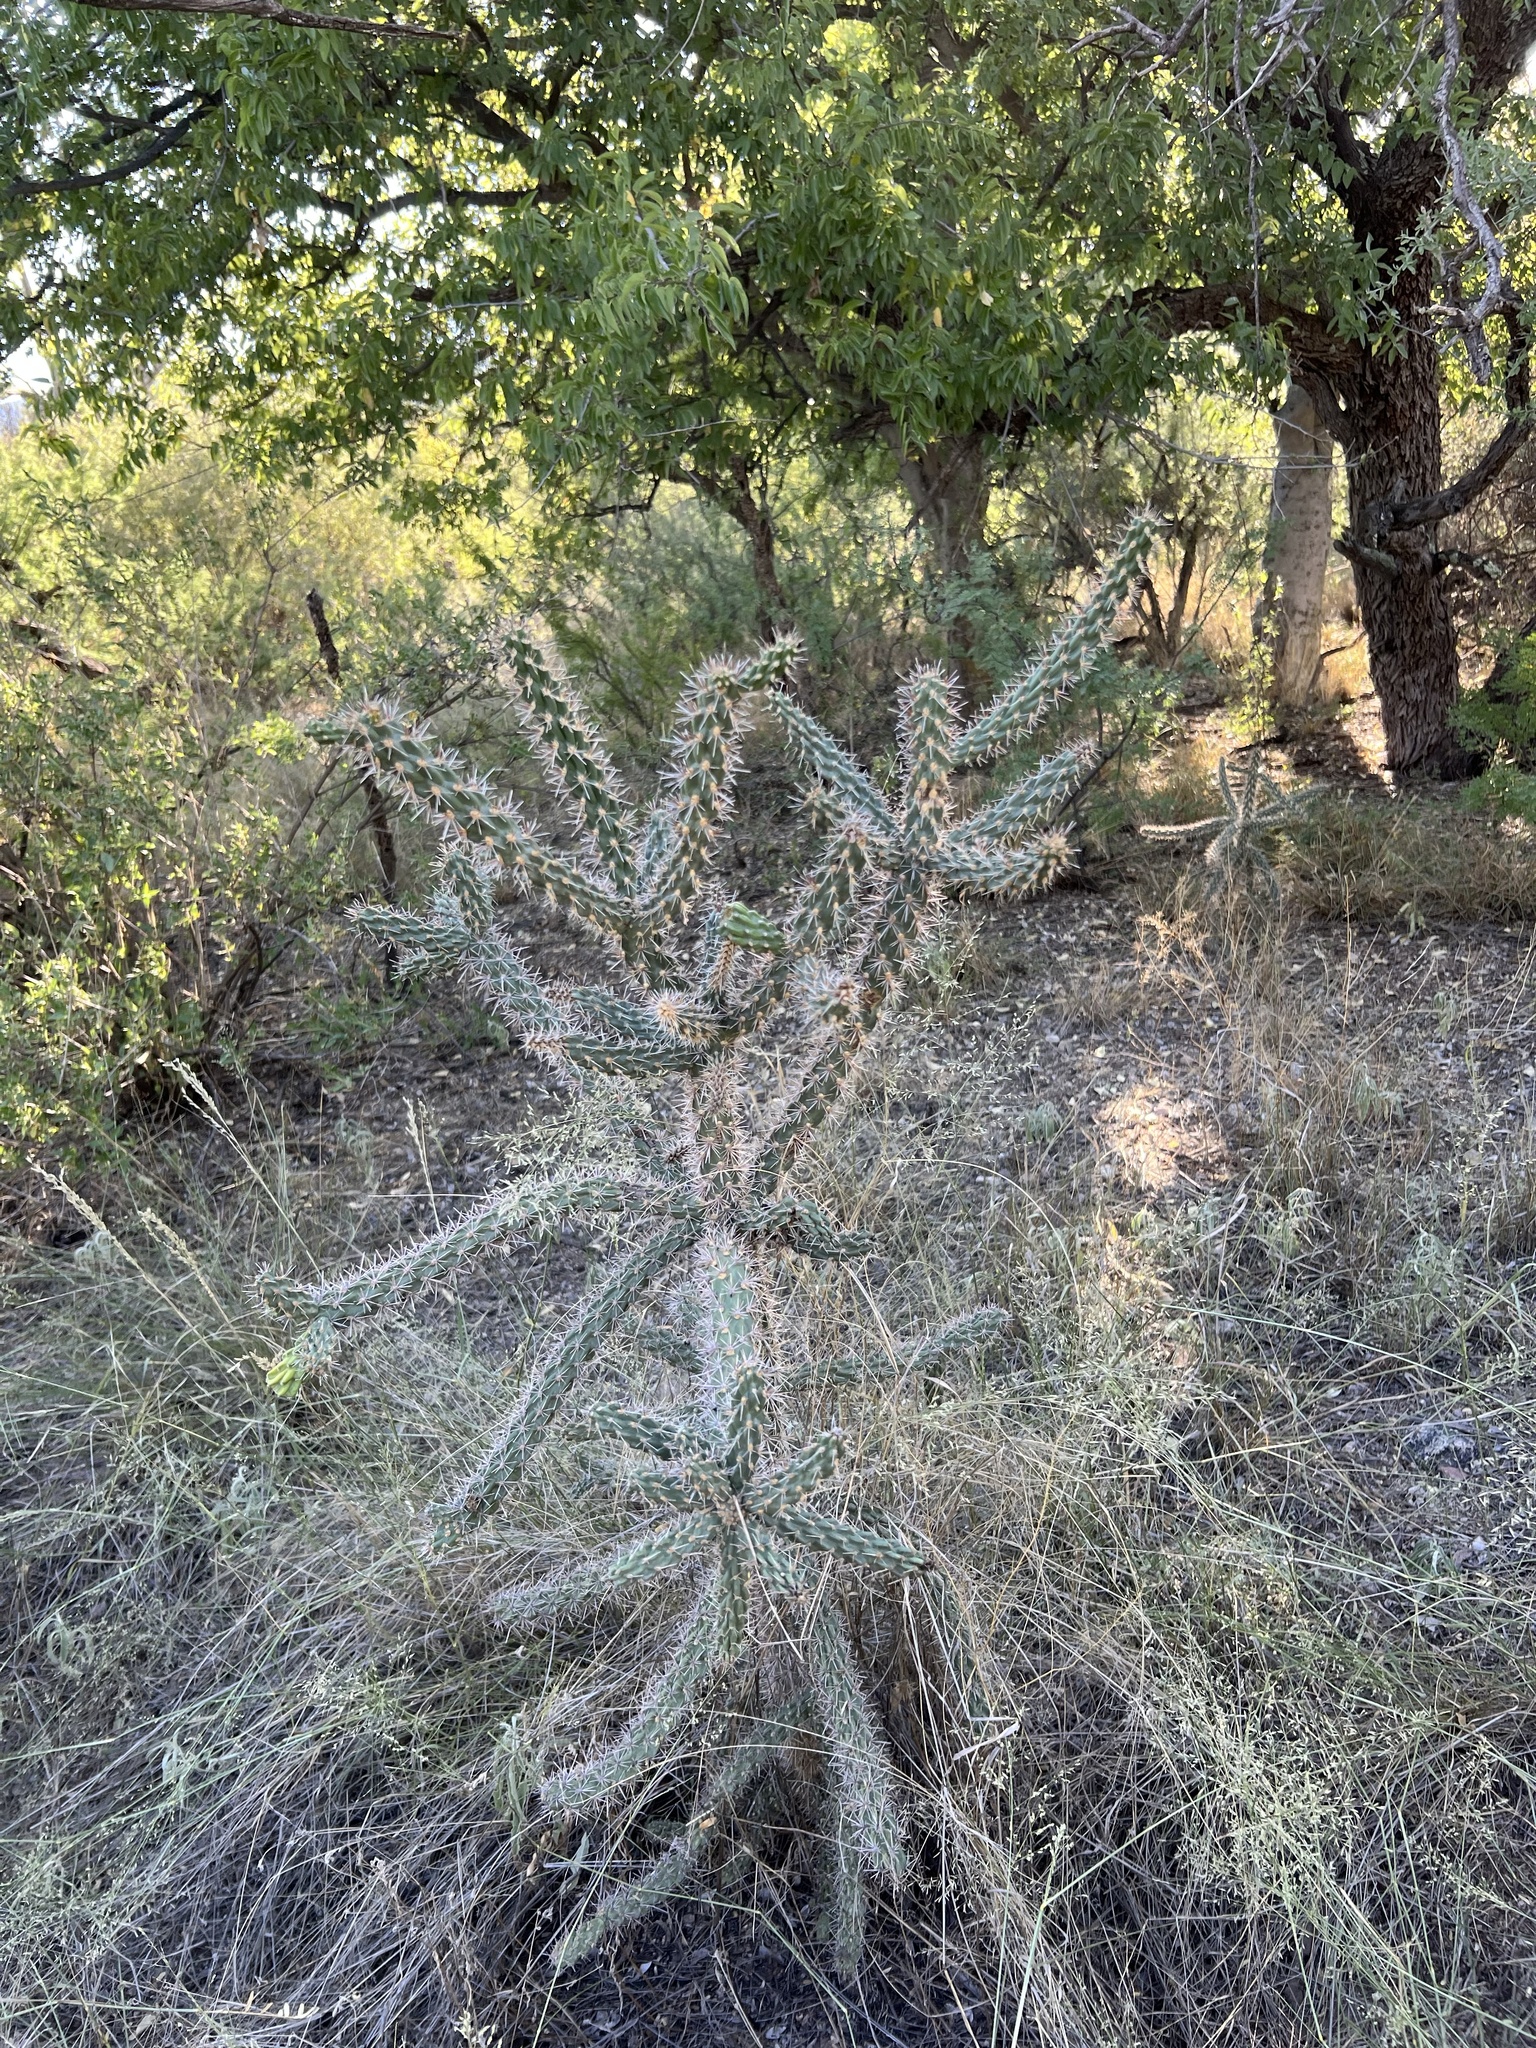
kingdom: Plantae
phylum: Tracheophyta
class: Magnoliopsida
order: Caryophyllales
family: Cactaceae
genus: Cylindropuntia
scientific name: Cylindropuntia imbricata
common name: Candelabrum cactus
